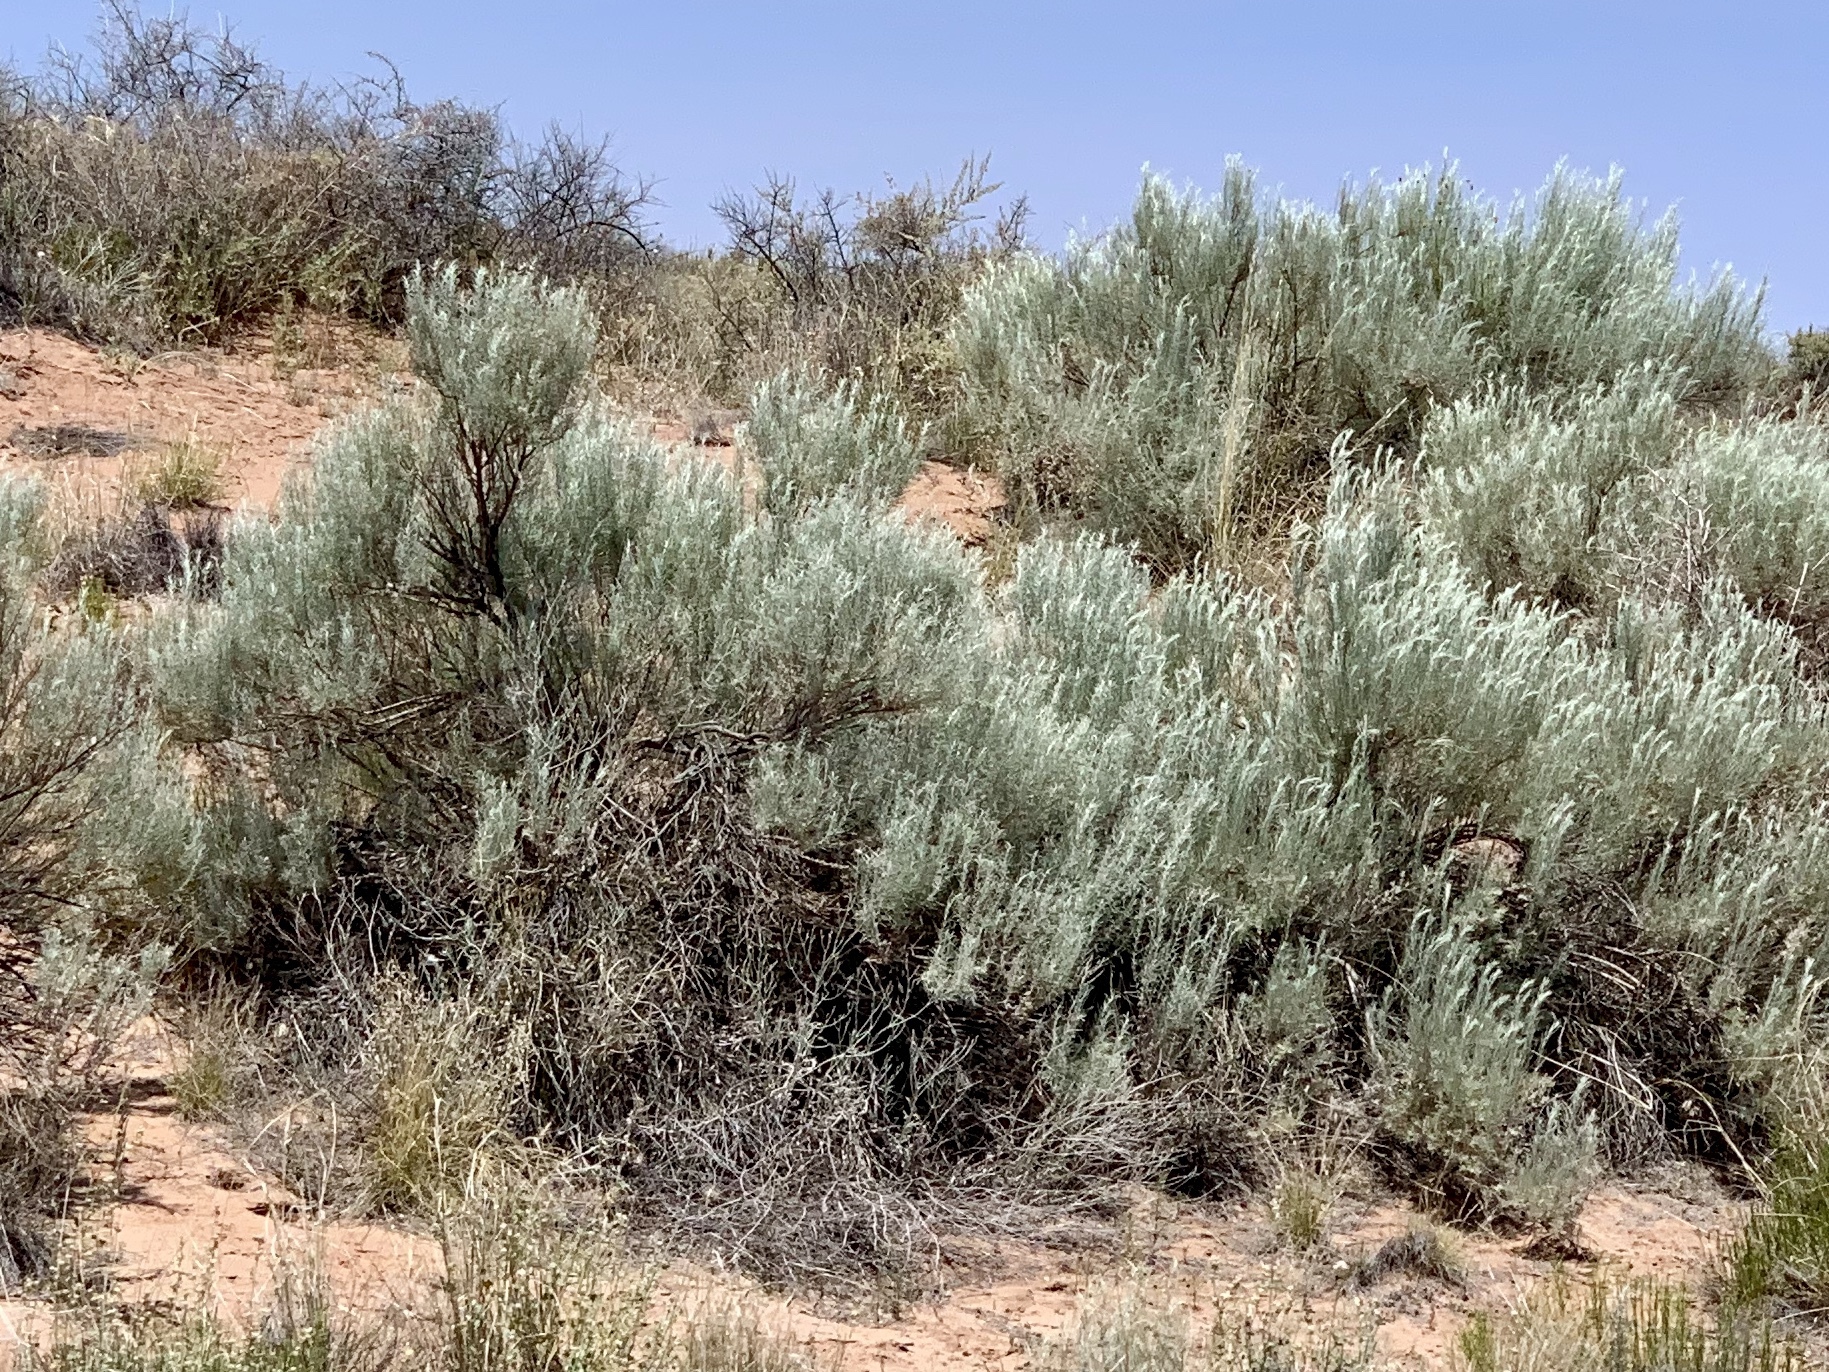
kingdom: Plantae
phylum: Tracheophyta
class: Magnoliopsida
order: Asterales
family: Asteraceae
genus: Artemisia
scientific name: Artemisia filifolia
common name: Sand-sage
